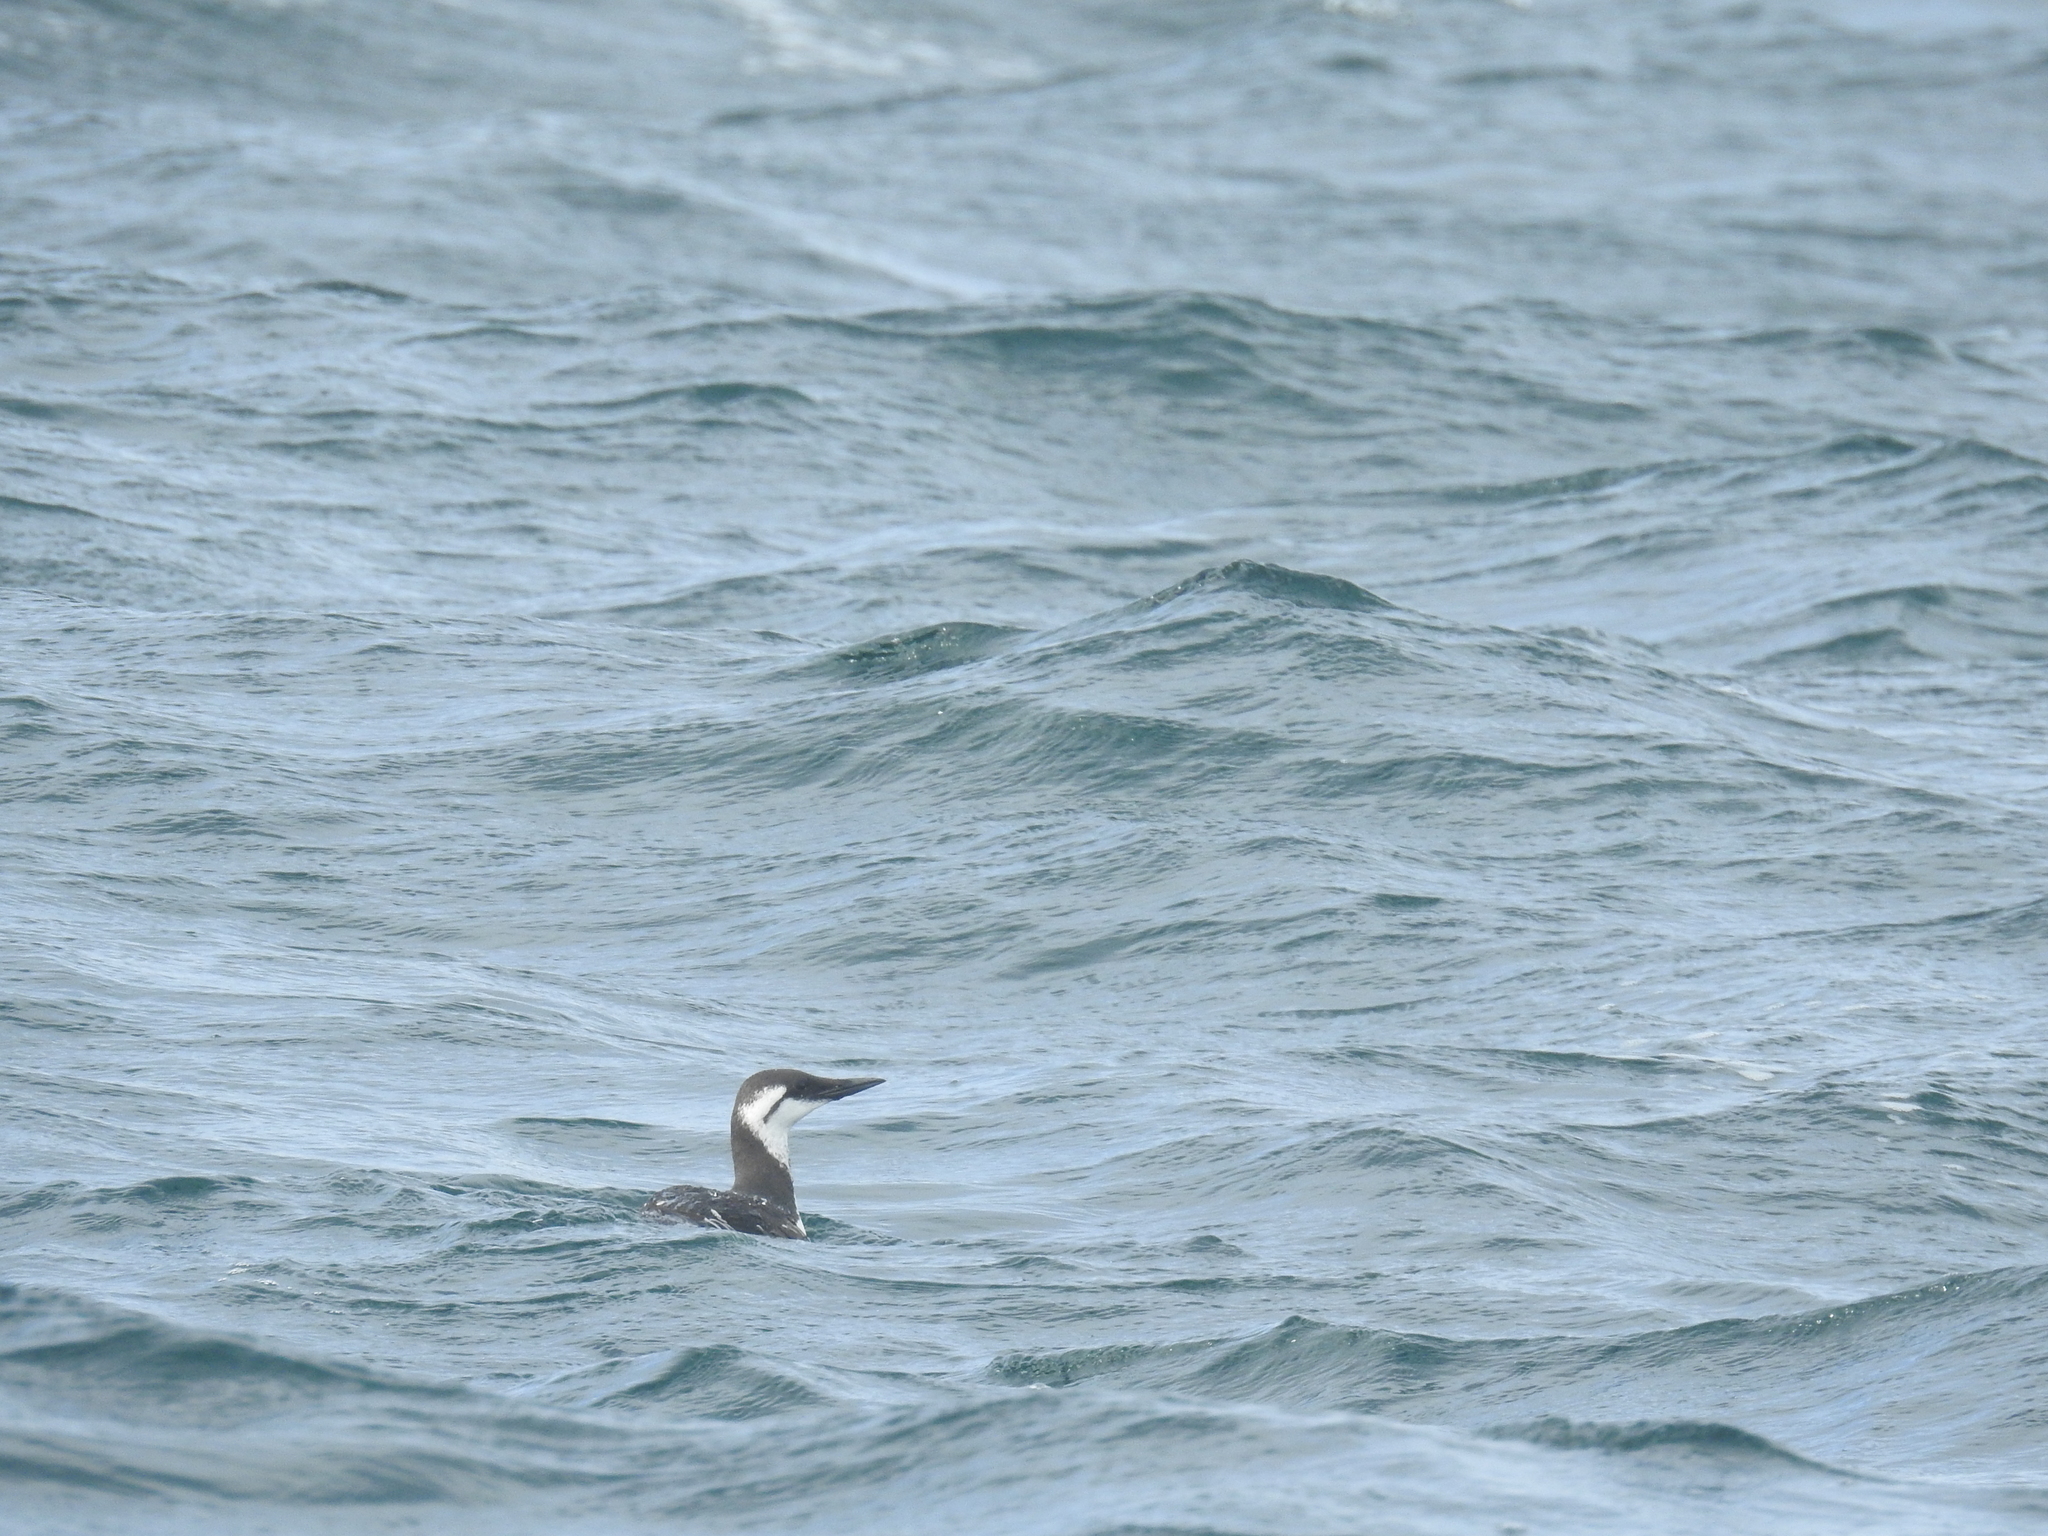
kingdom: Animalia
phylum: Chordata
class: Aves
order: Charadriiformes
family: Alcidae
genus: Uria
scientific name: Uria aalge
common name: Common murre
